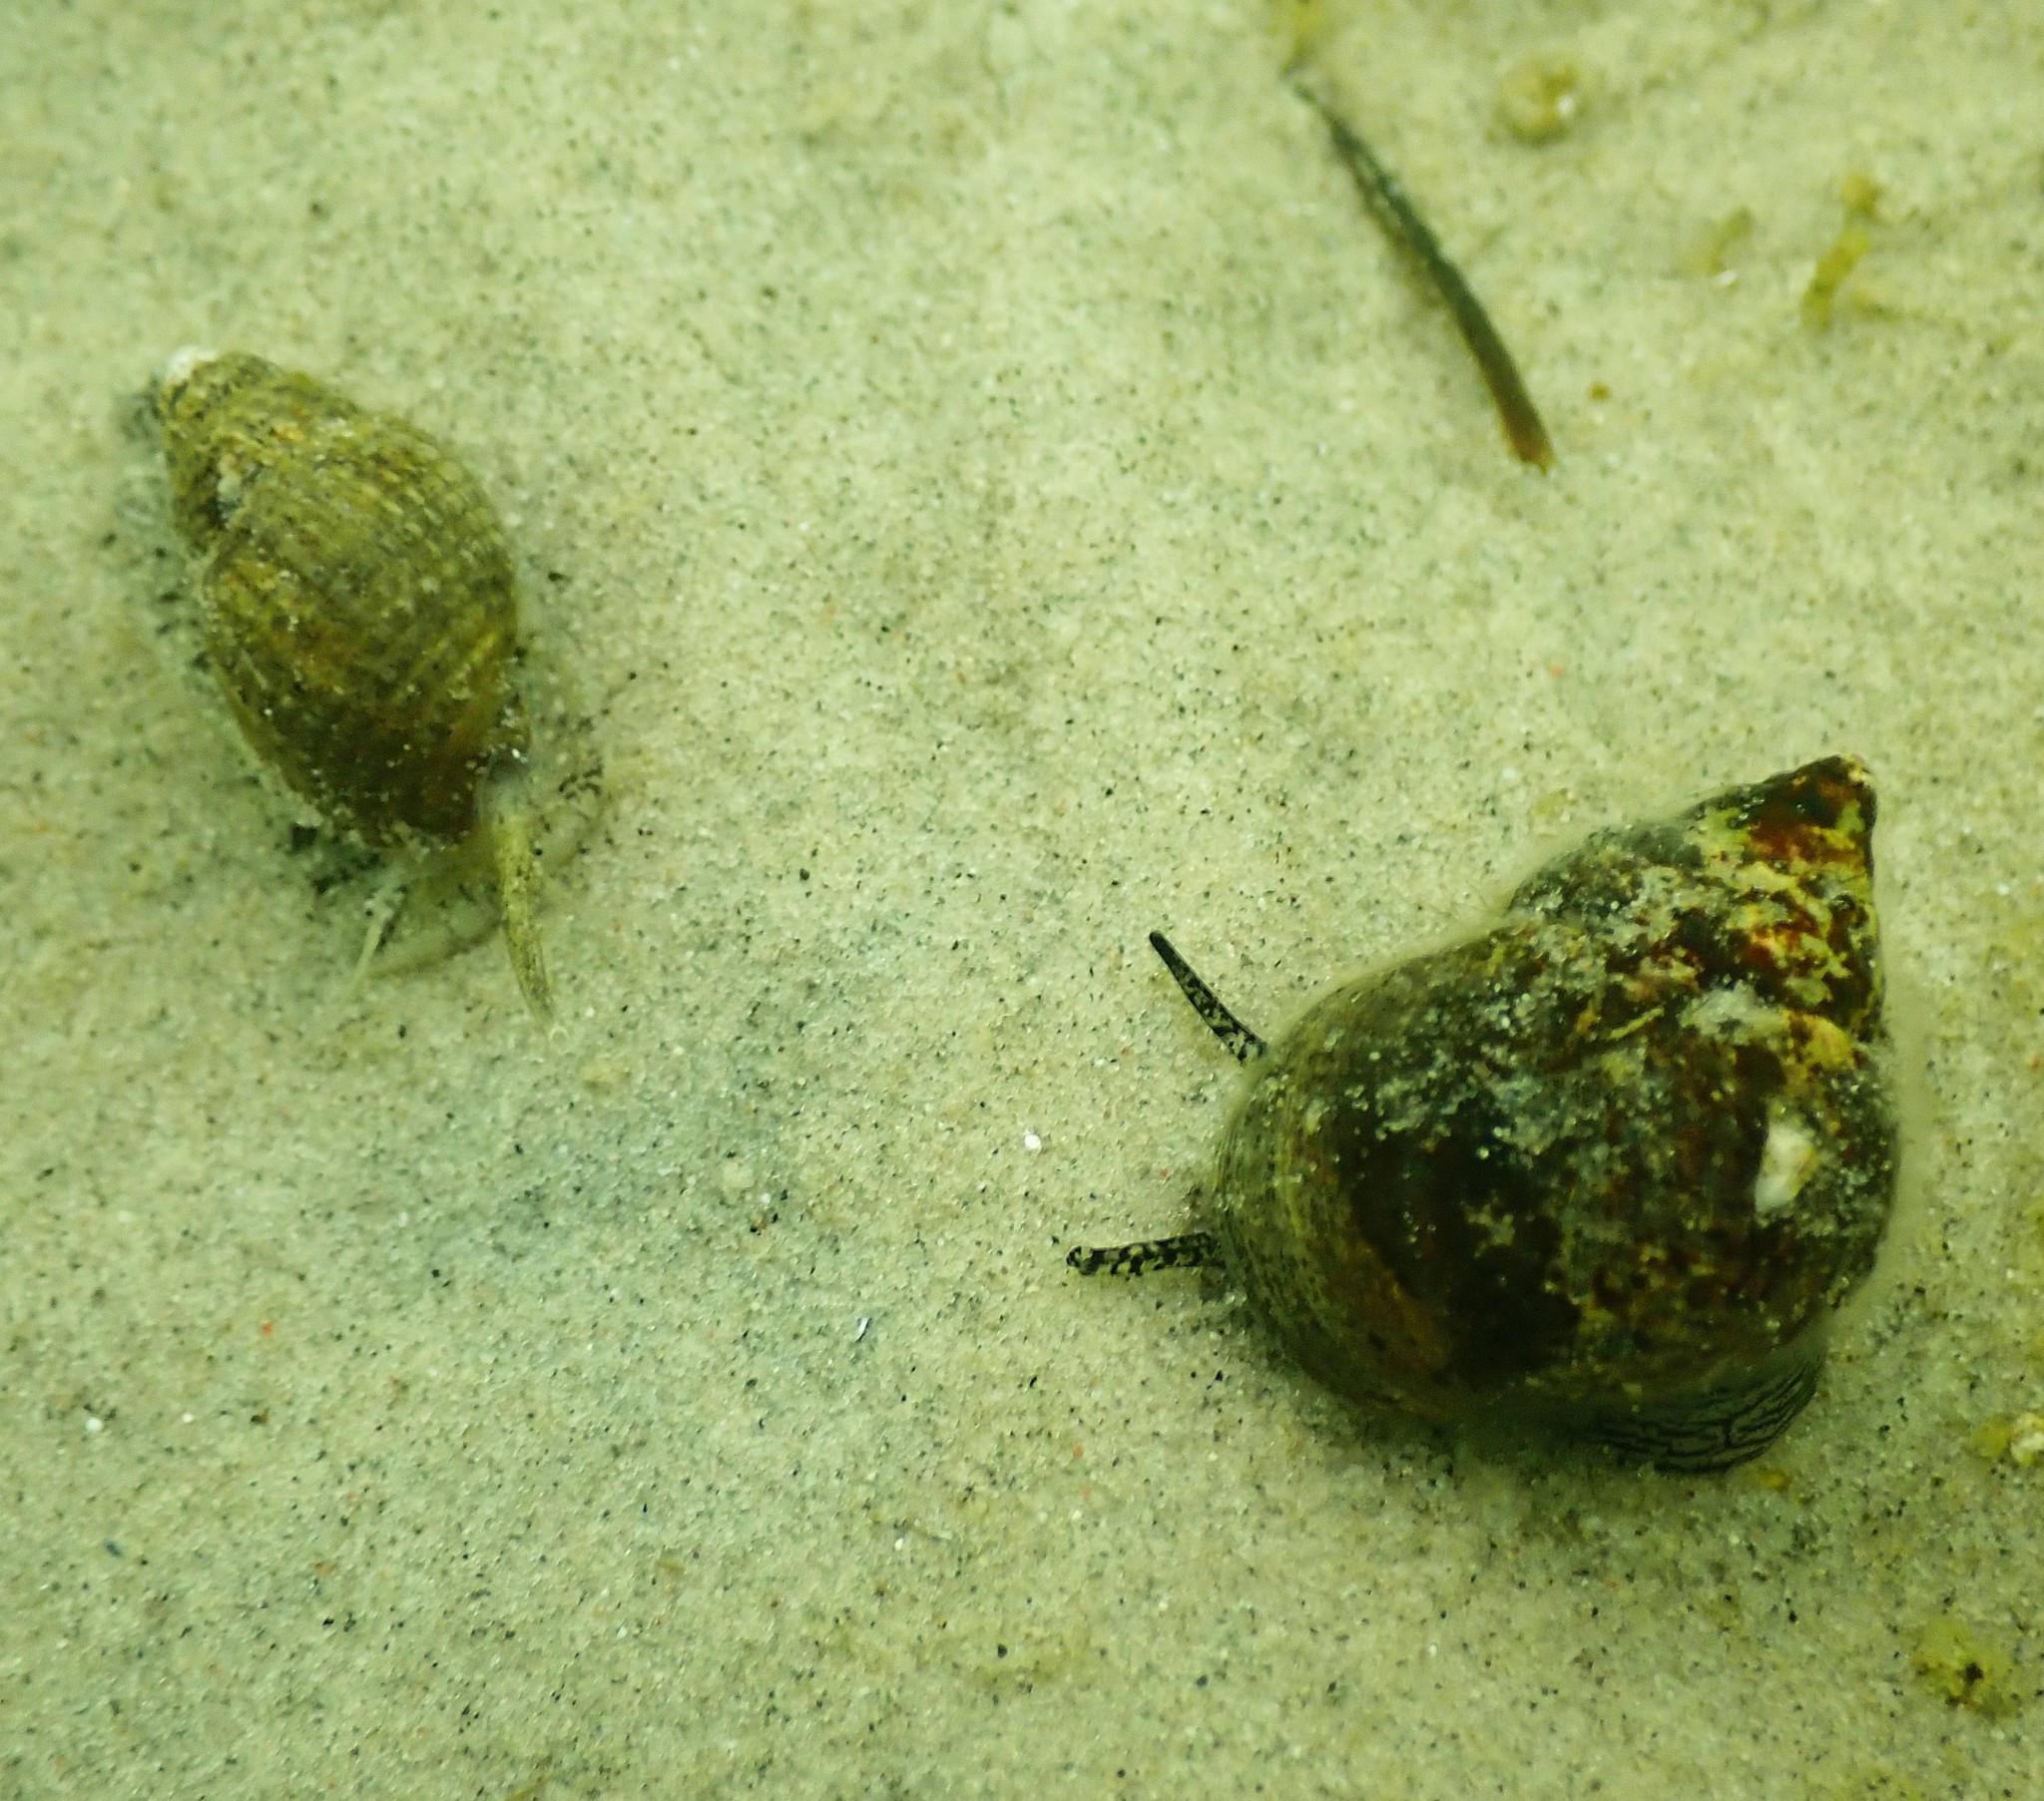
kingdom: Animalia
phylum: Mollusca
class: Gastropoda
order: Littorinimorpha
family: Littorinidae
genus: Littorina
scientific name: Littorina littorea
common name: Common periwinkle
